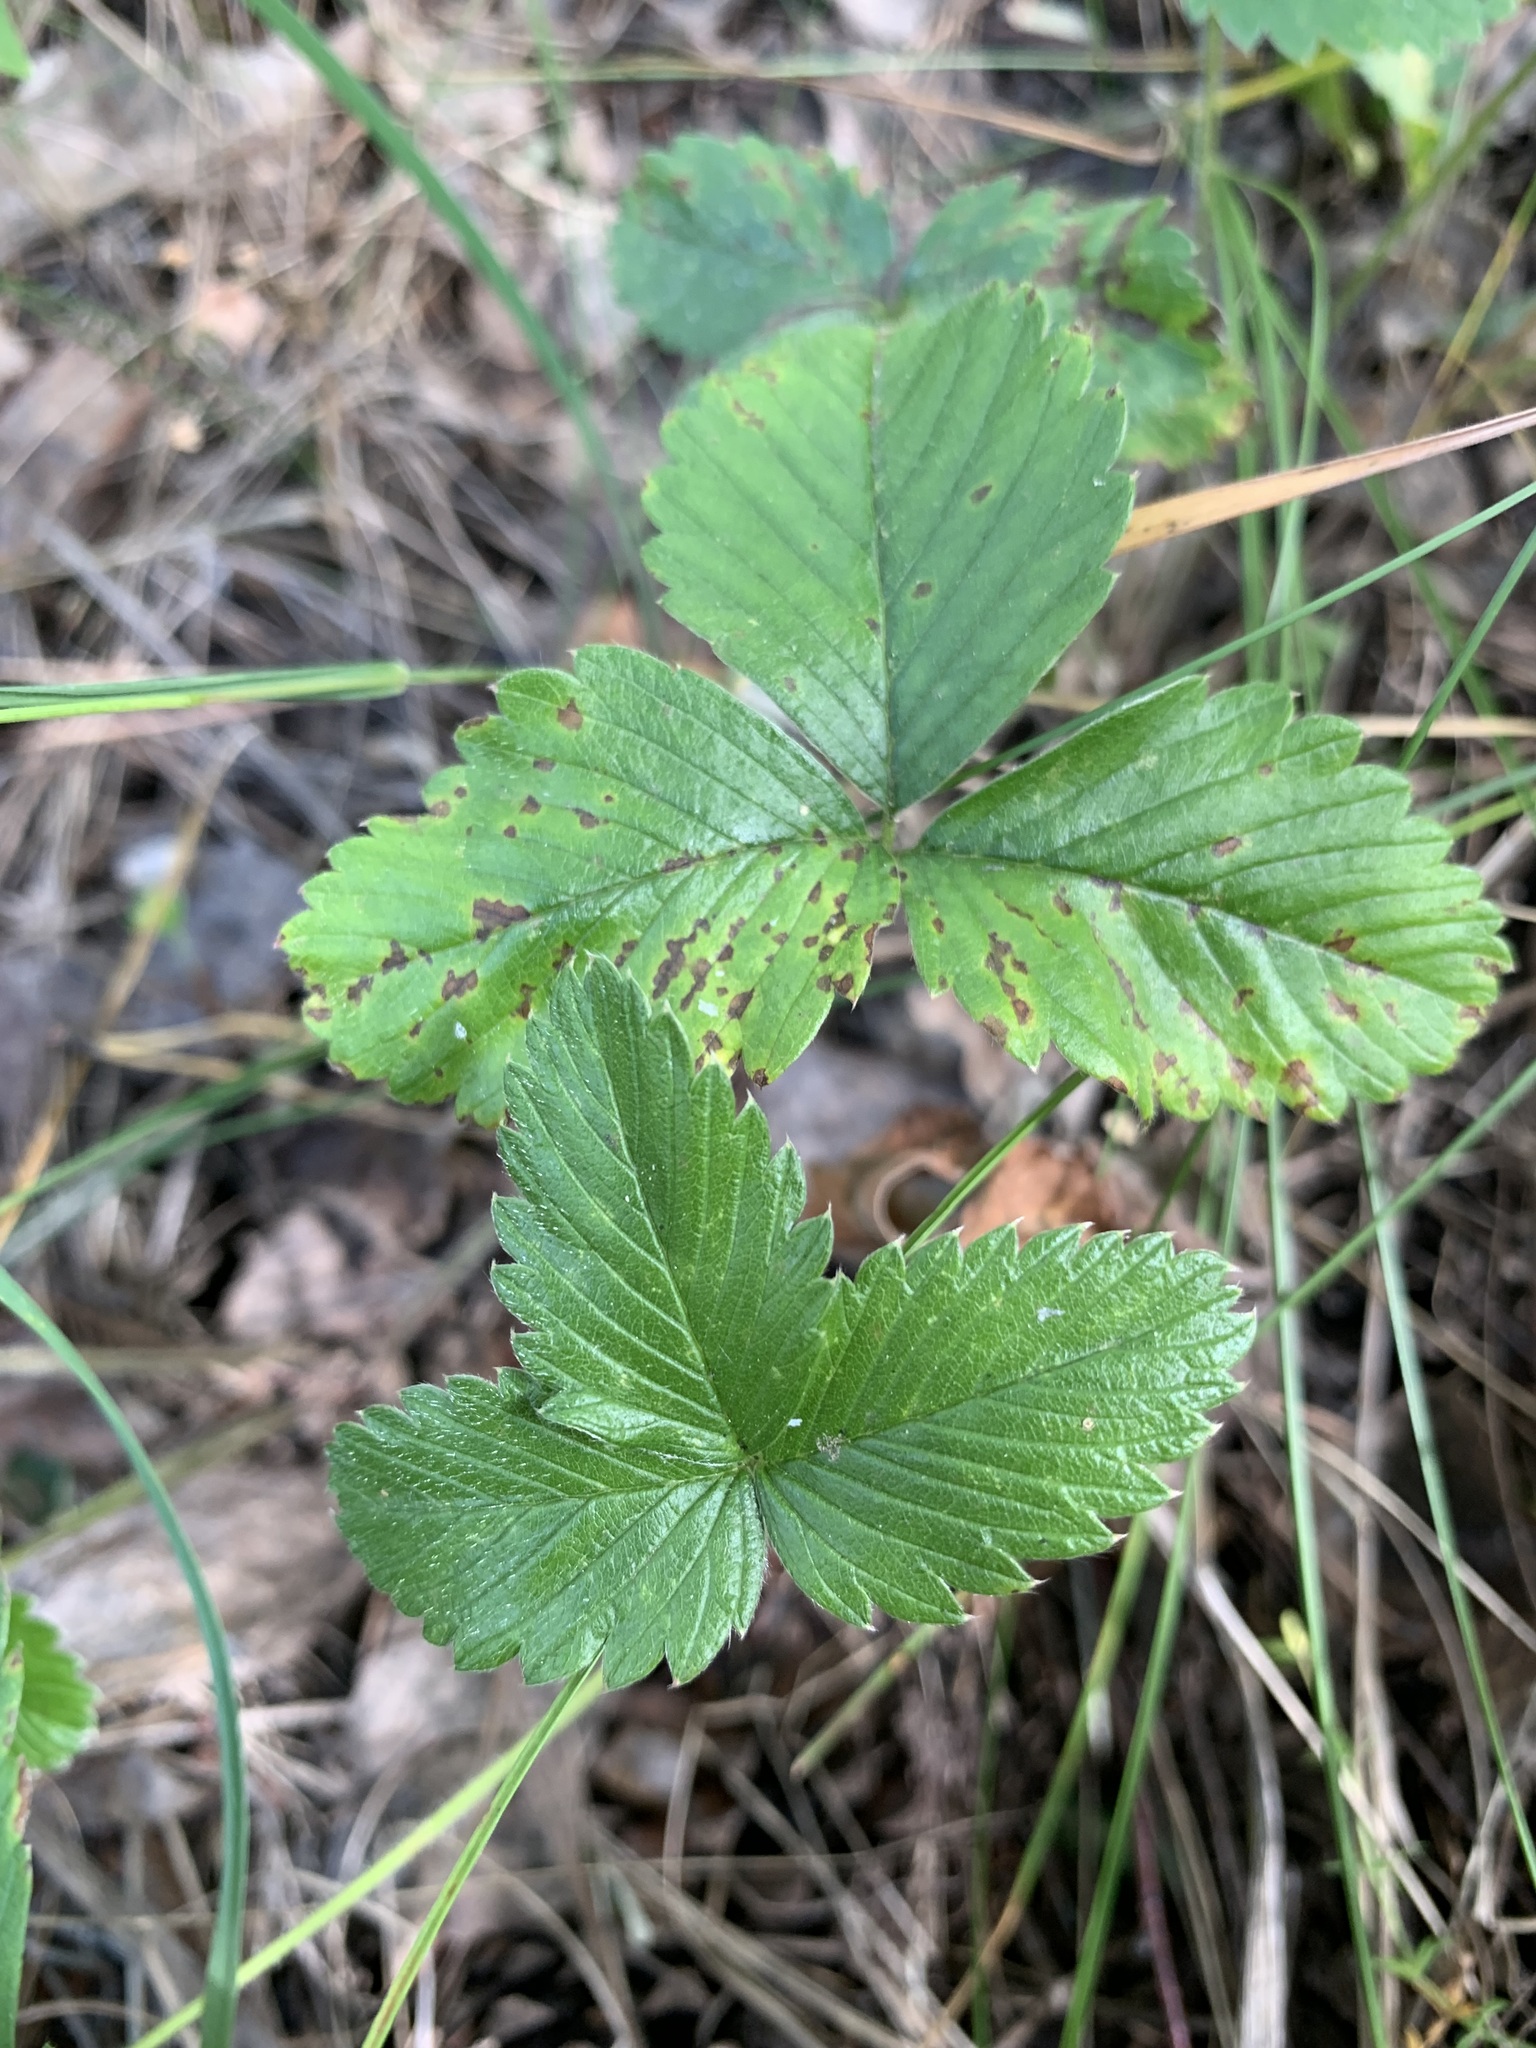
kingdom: Plantae
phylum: Tracheophyta
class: Magnoliopsida
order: Rosales
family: Rosaceae
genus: Fragaria
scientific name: Fragaria viridis
